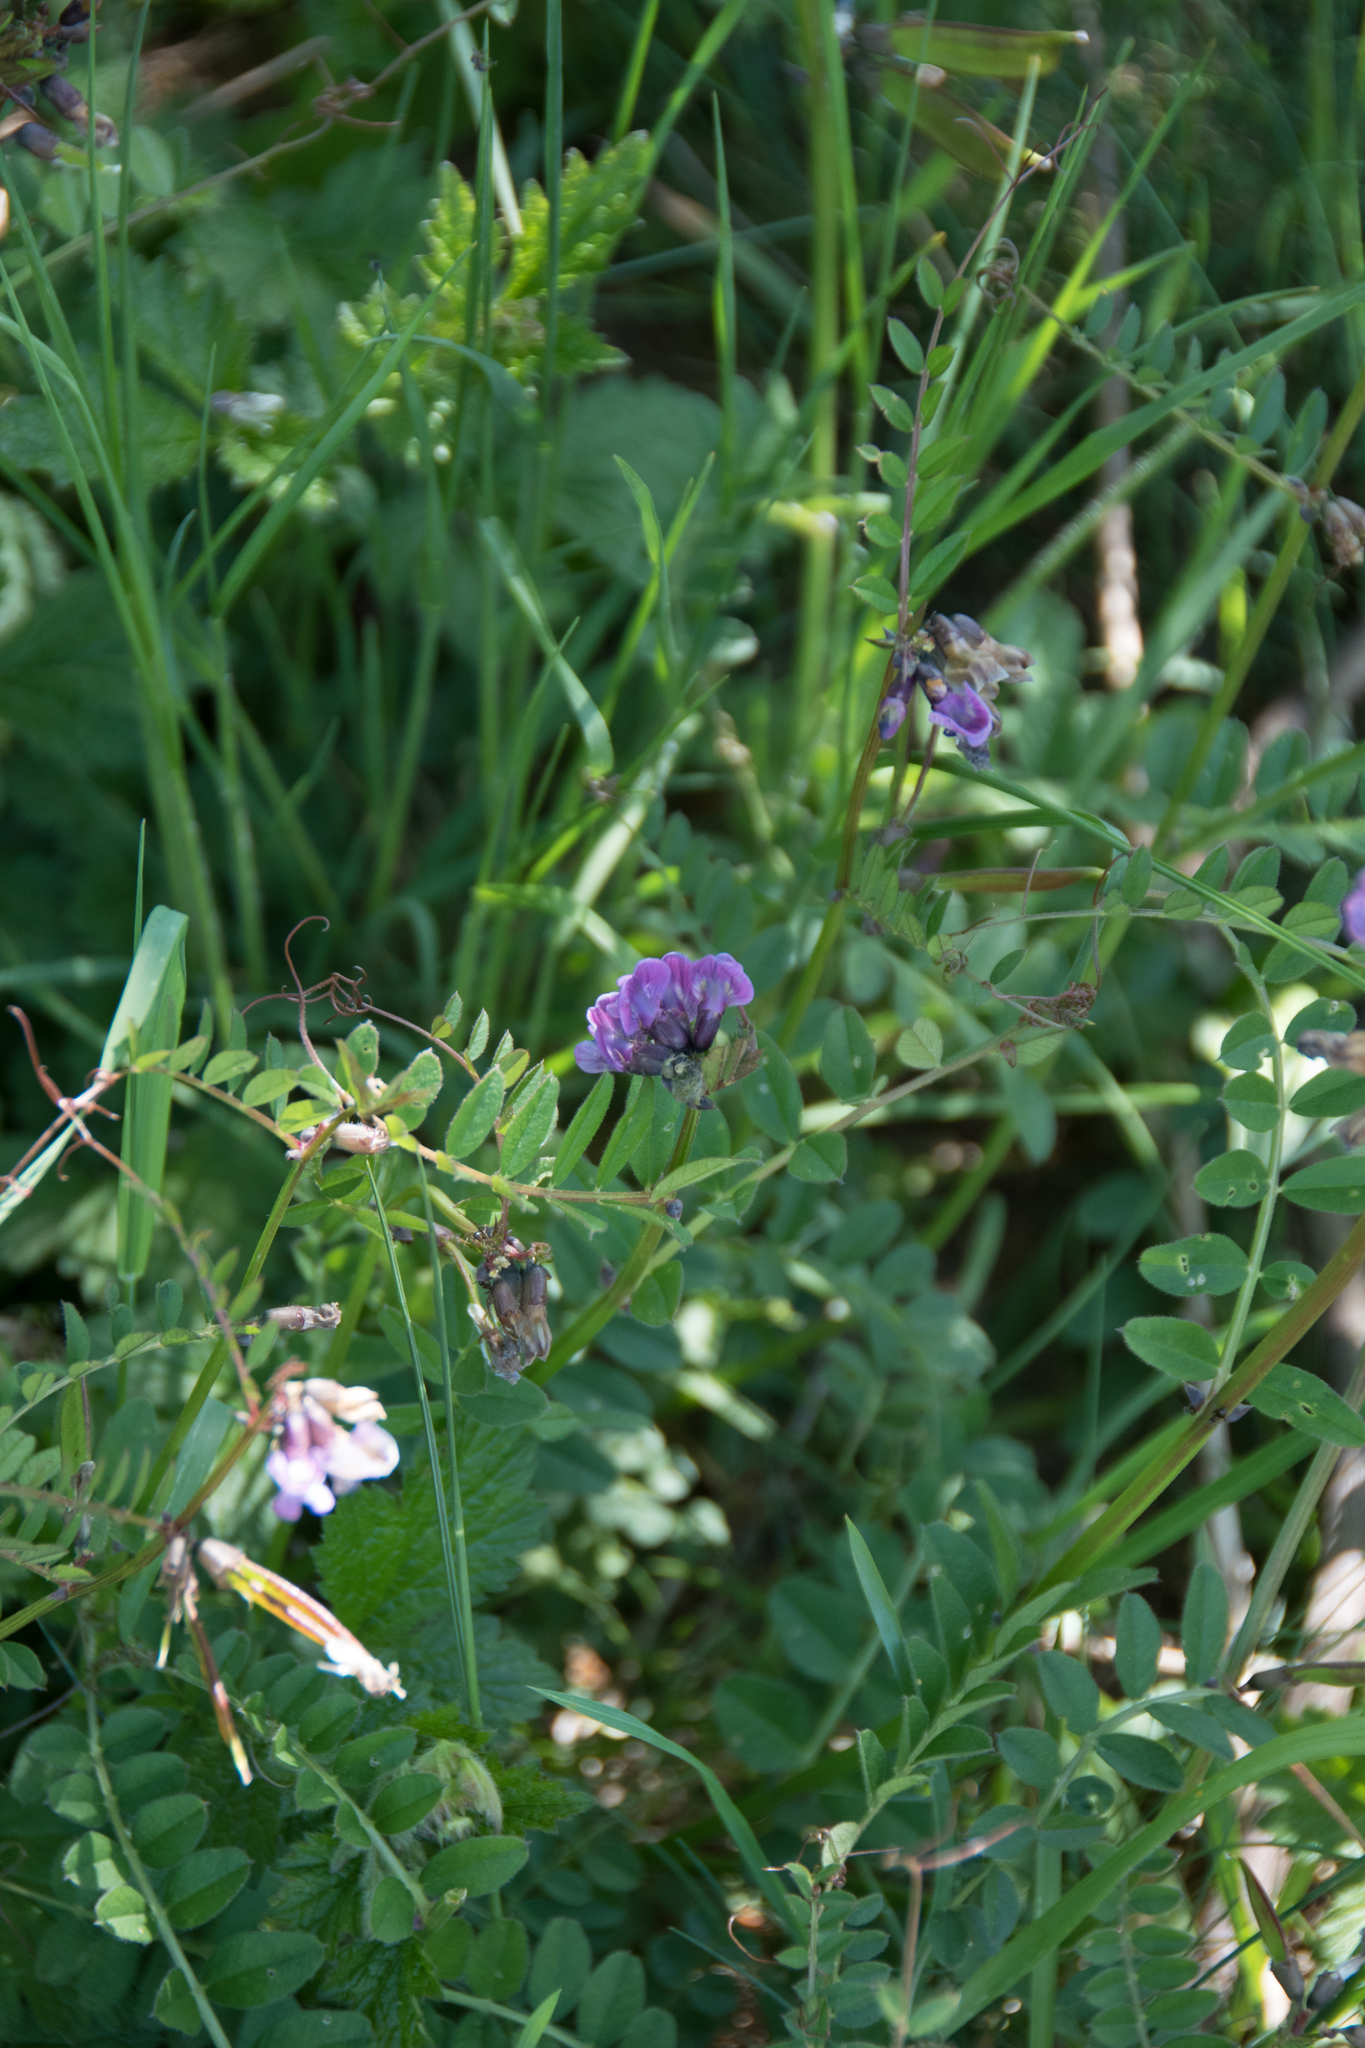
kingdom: Plantae
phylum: Tracheophyta
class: Magnoliopsida
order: Fabales
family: Fabaceae
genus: Vicia
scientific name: Vicia sepium
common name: Bush vetch
